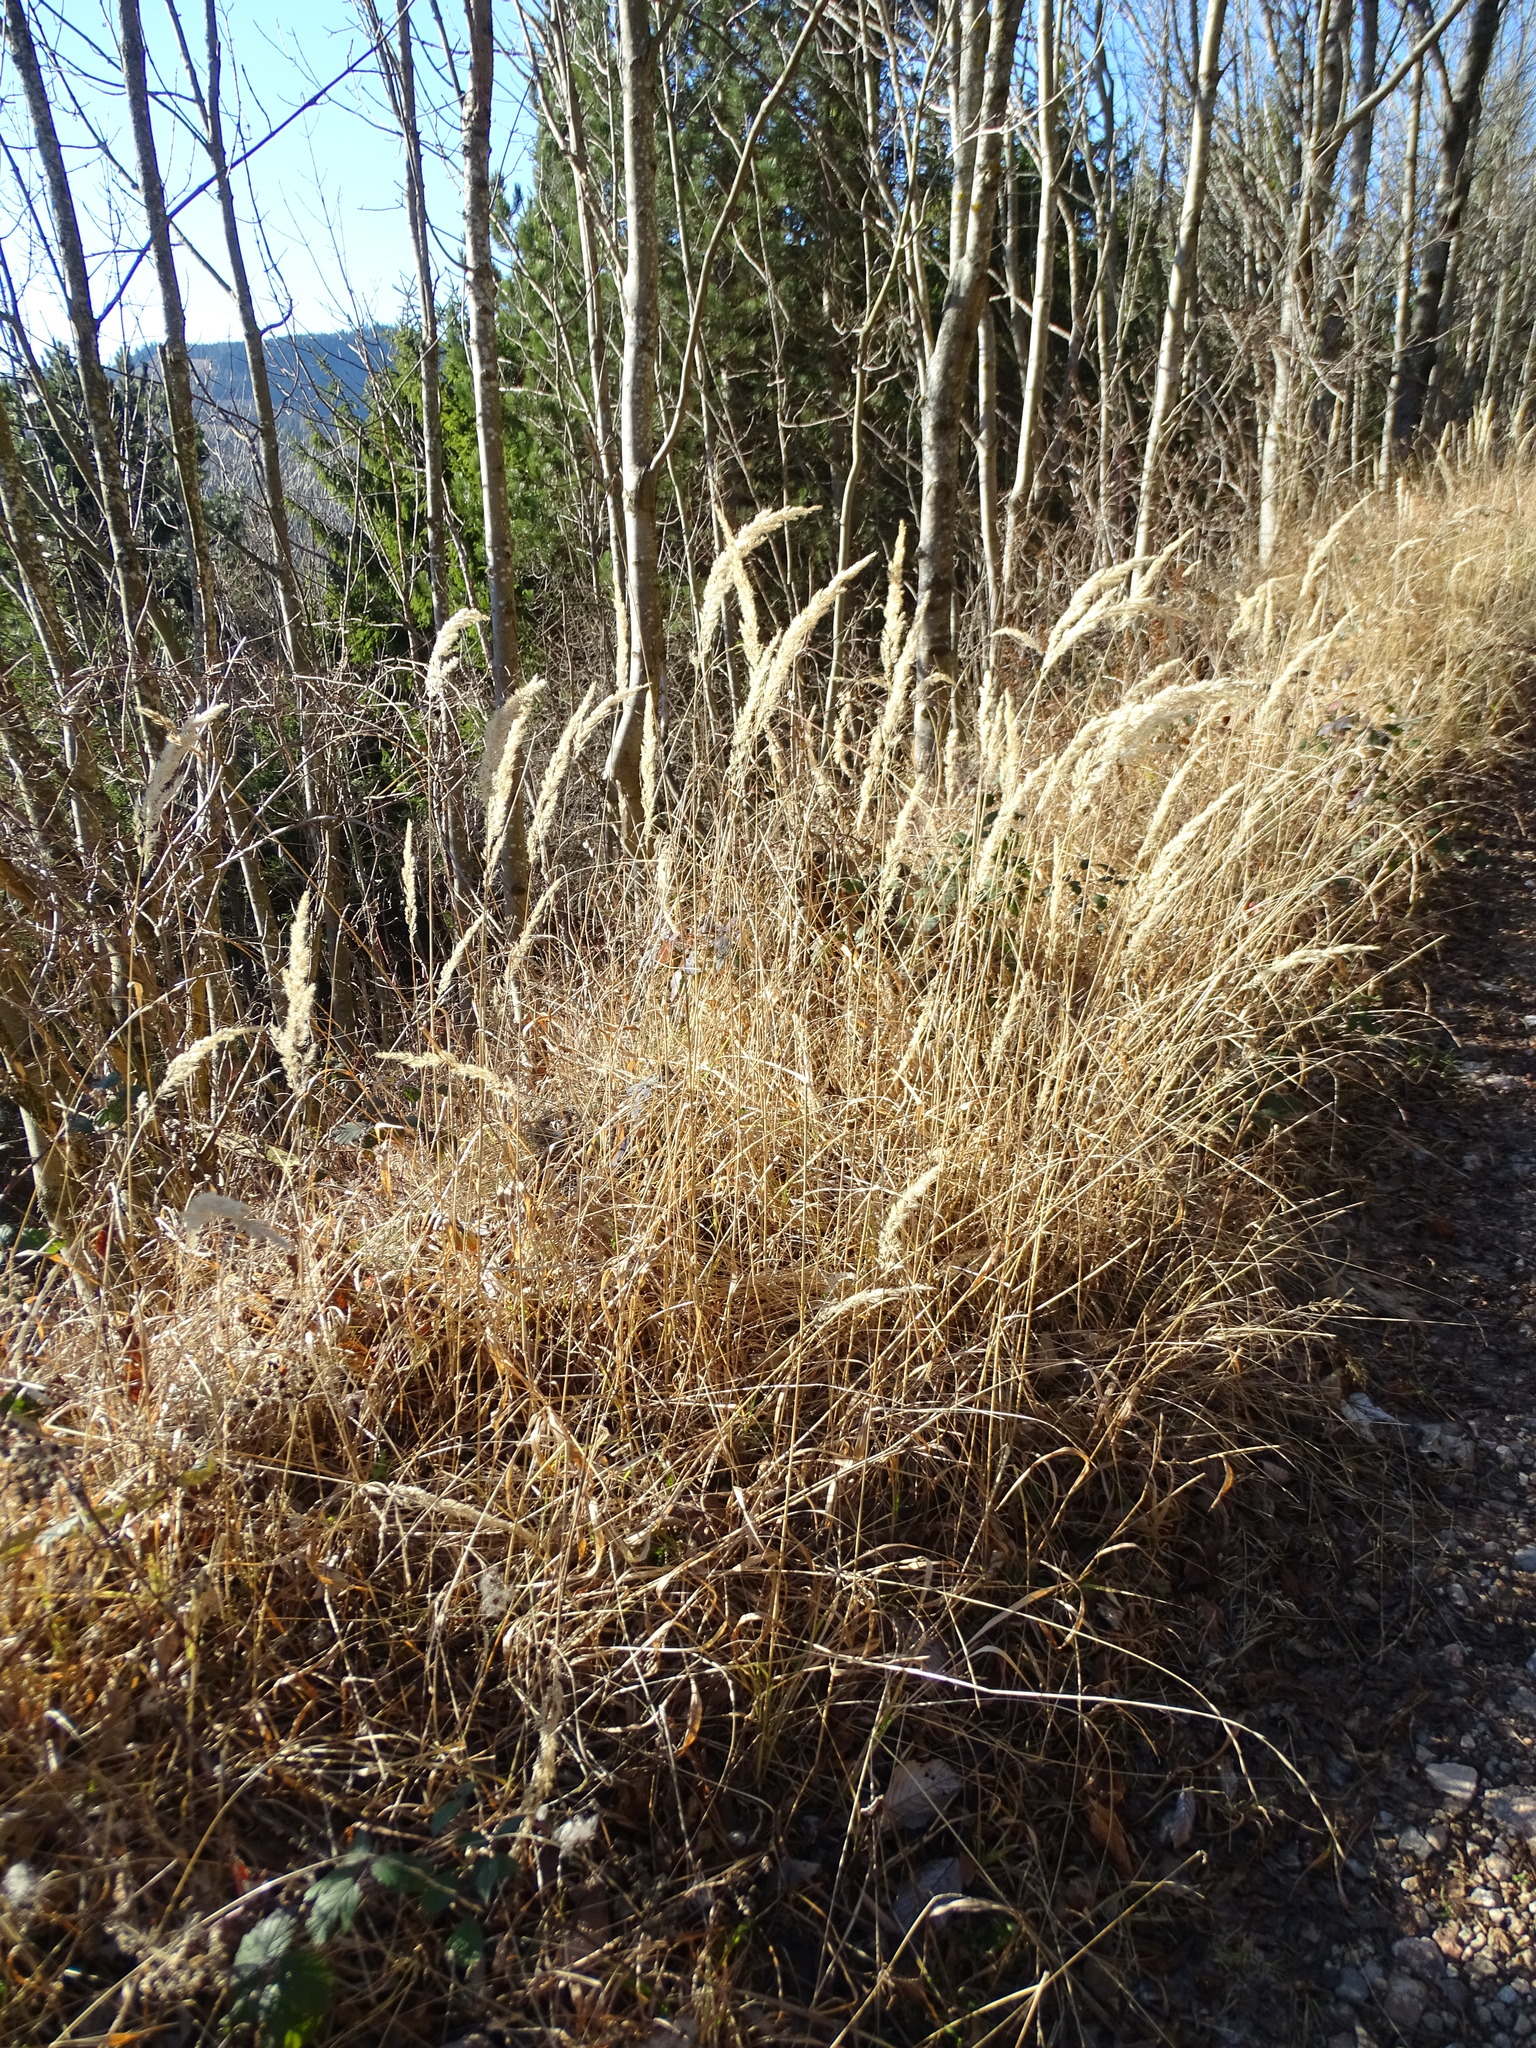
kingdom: Plantae
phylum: Tracheophyta
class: Liliopsida
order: Poales
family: Poaceae
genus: Calamagrostis
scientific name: Calamagrostis epigejos
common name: Wood small-reed
